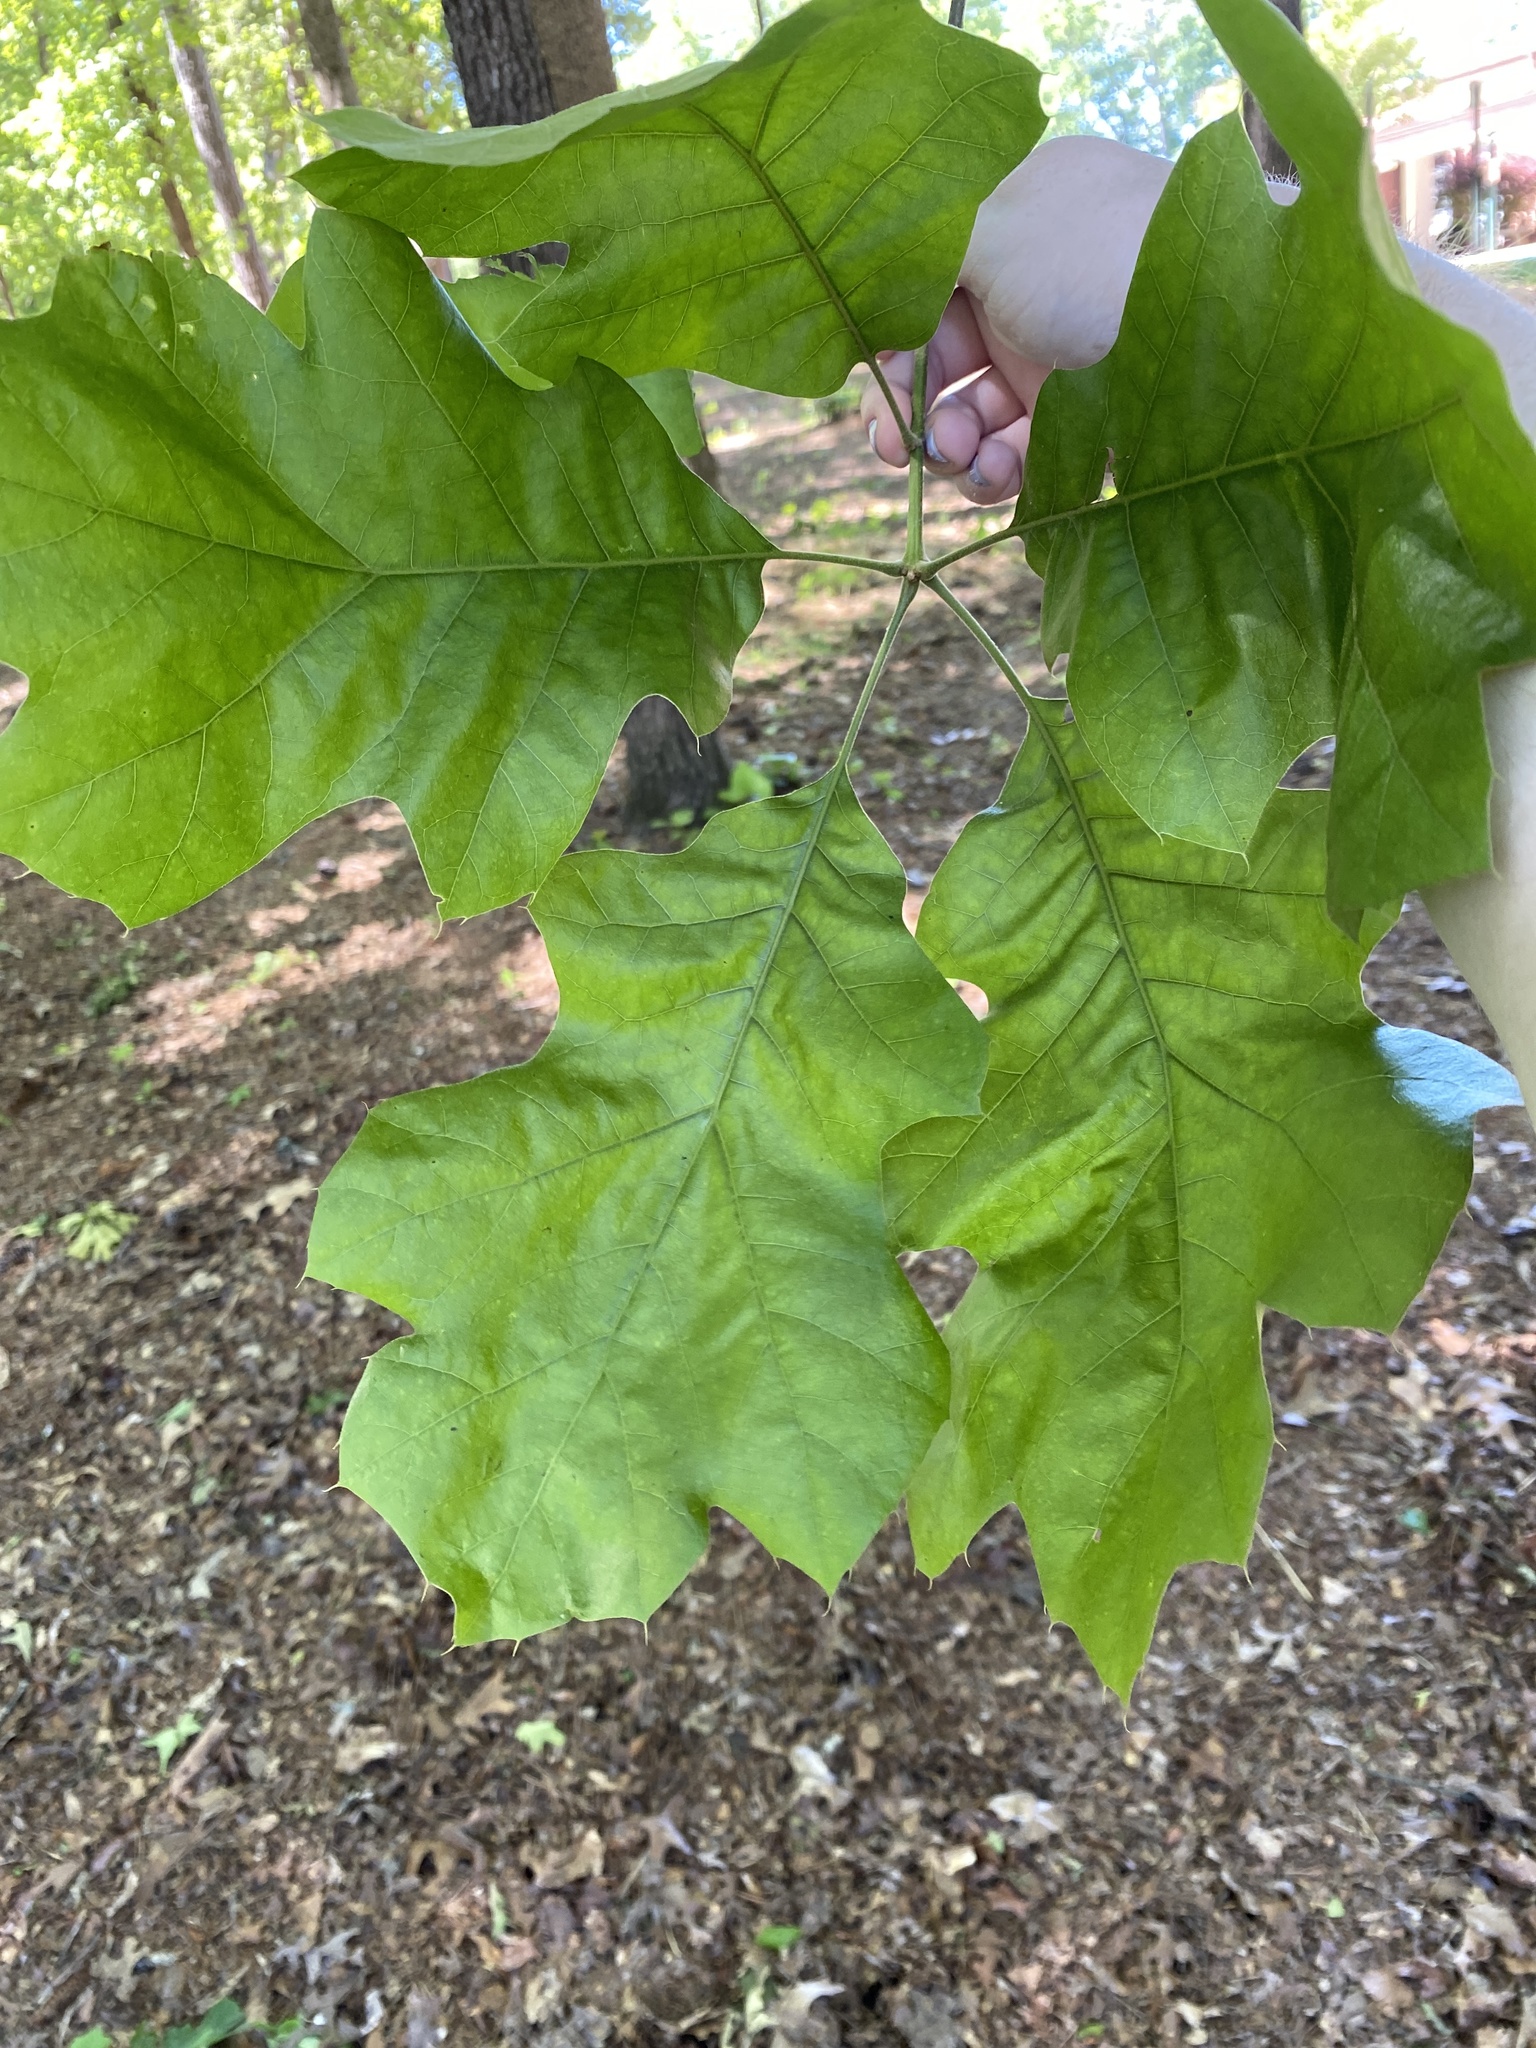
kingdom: Plantae
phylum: Tracheophyta
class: Magnoliopsida
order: Fagales
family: Fagaceae
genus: Quercus
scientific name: Quercus velutina
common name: Black oak
